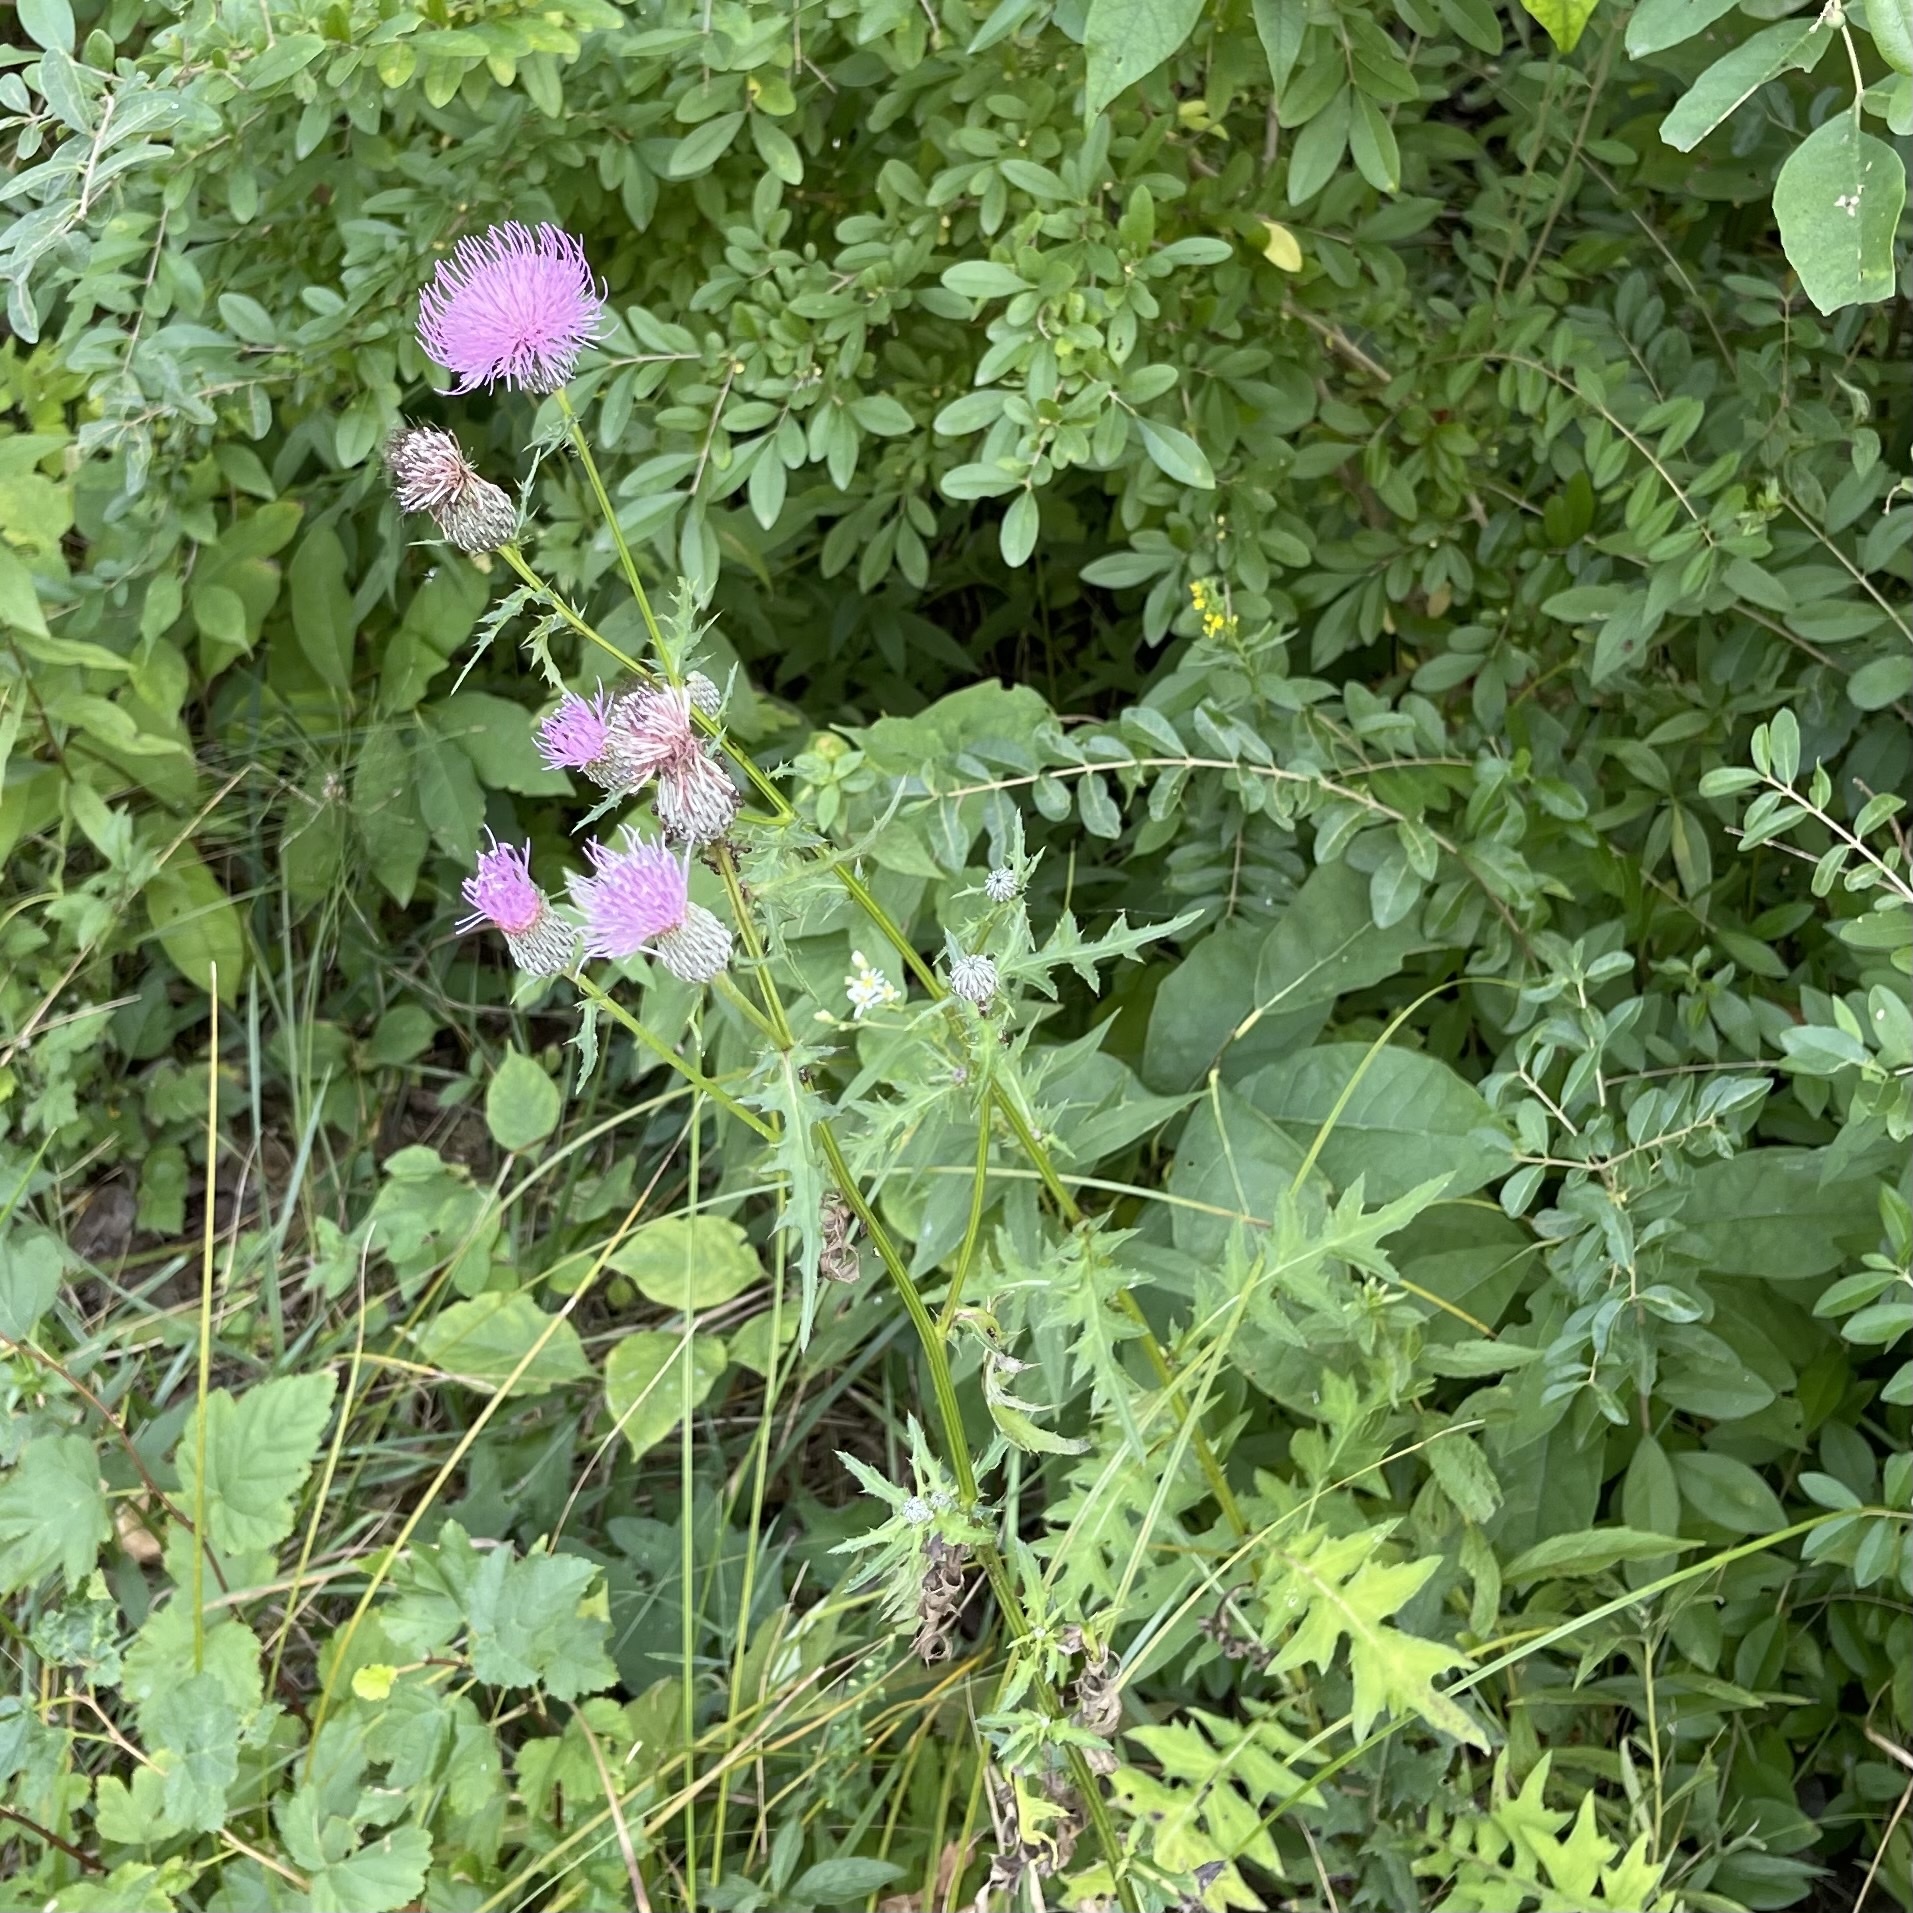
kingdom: Plantae
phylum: Tracheophyta
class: Magnoliopsida
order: Asterales
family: Asteraceae
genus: Cirsium
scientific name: Cirsium muticum
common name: Dunce-nettle
